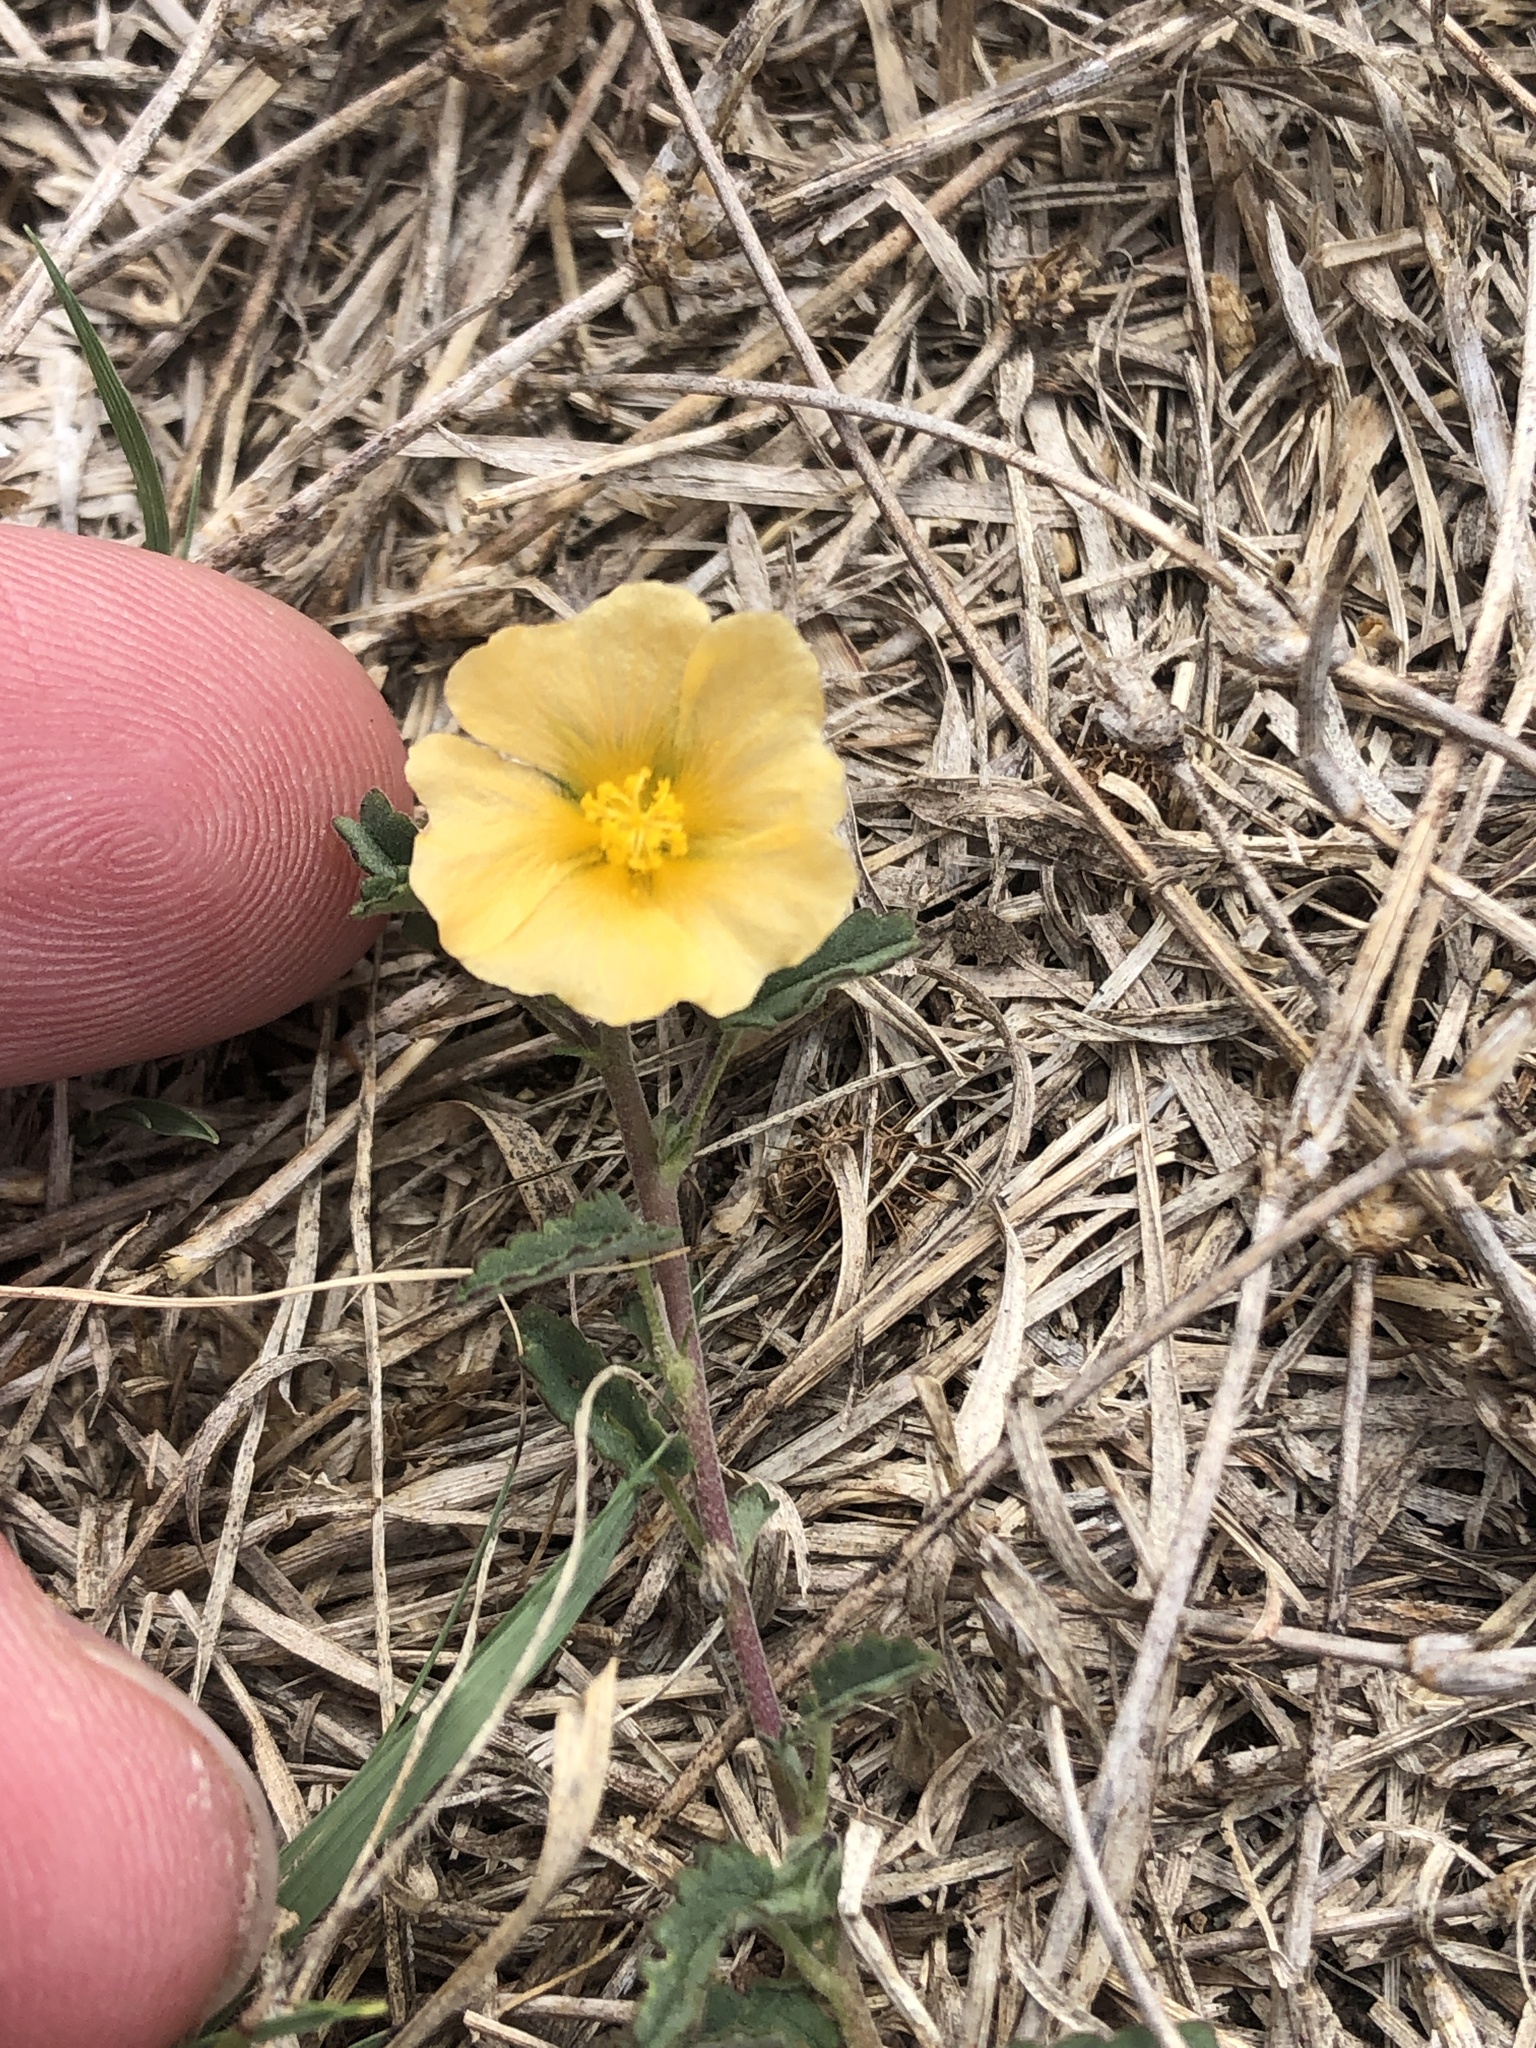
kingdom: Plantae
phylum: Tracheophyta
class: Magnoliopsida
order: Malvales
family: Malvaceae
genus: Sida
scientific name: Sida abutilifolia
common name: Spreading fanpetals
